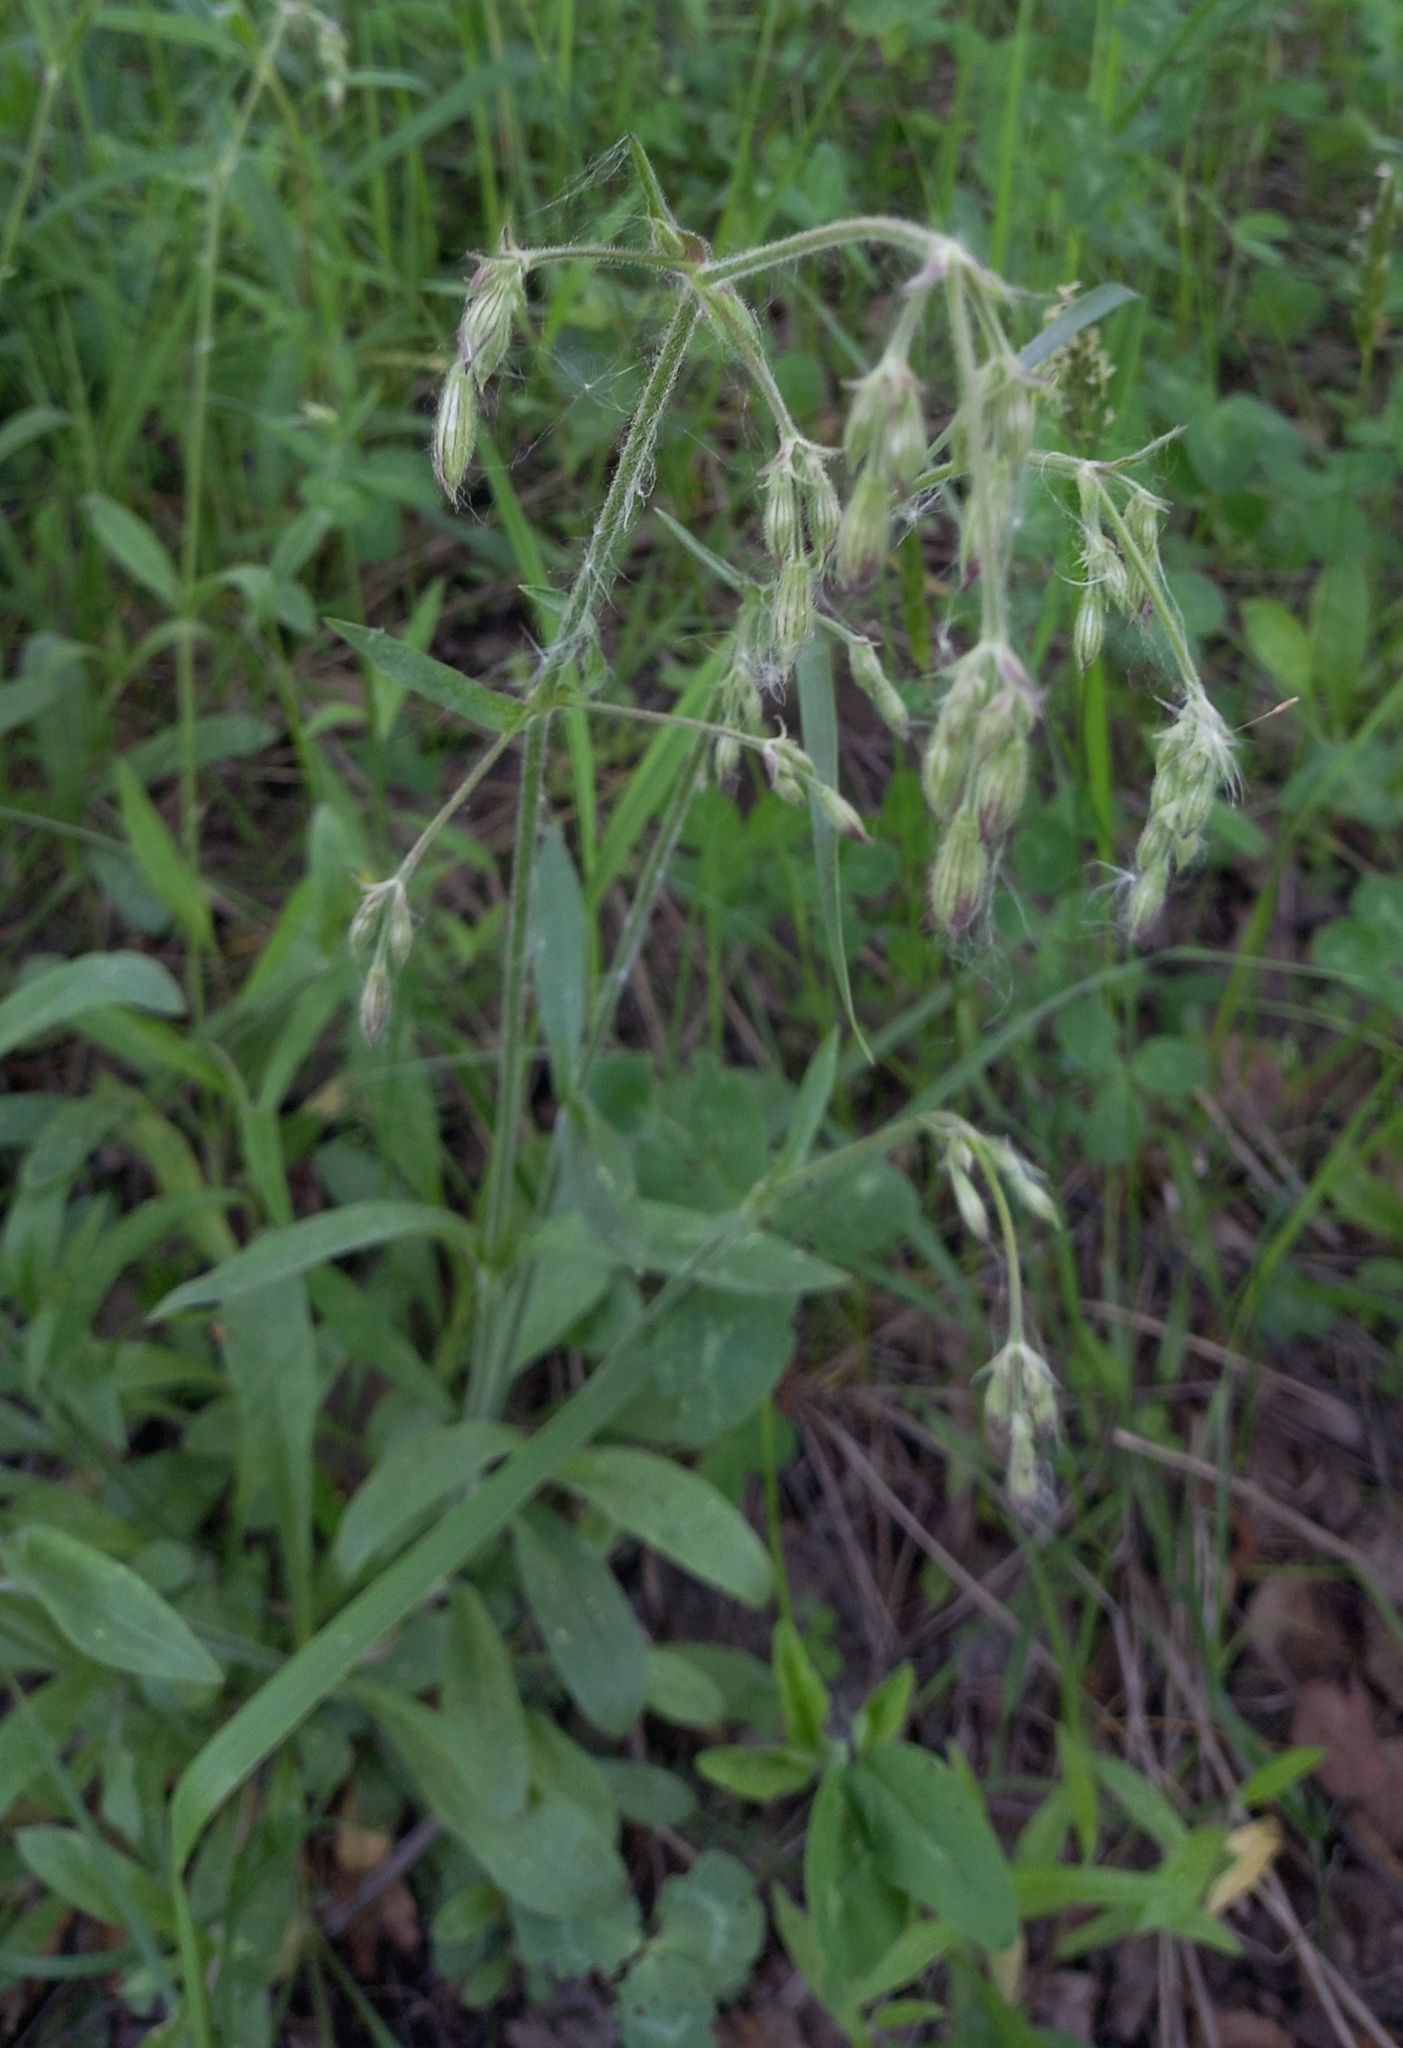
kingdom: Plantae
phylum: Tracheophyta
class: Magnoliopsida
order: Caryophyllales
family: Caryophyllaceae
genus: Silene
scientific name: Silene nutans
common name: Nottingham catchfly
